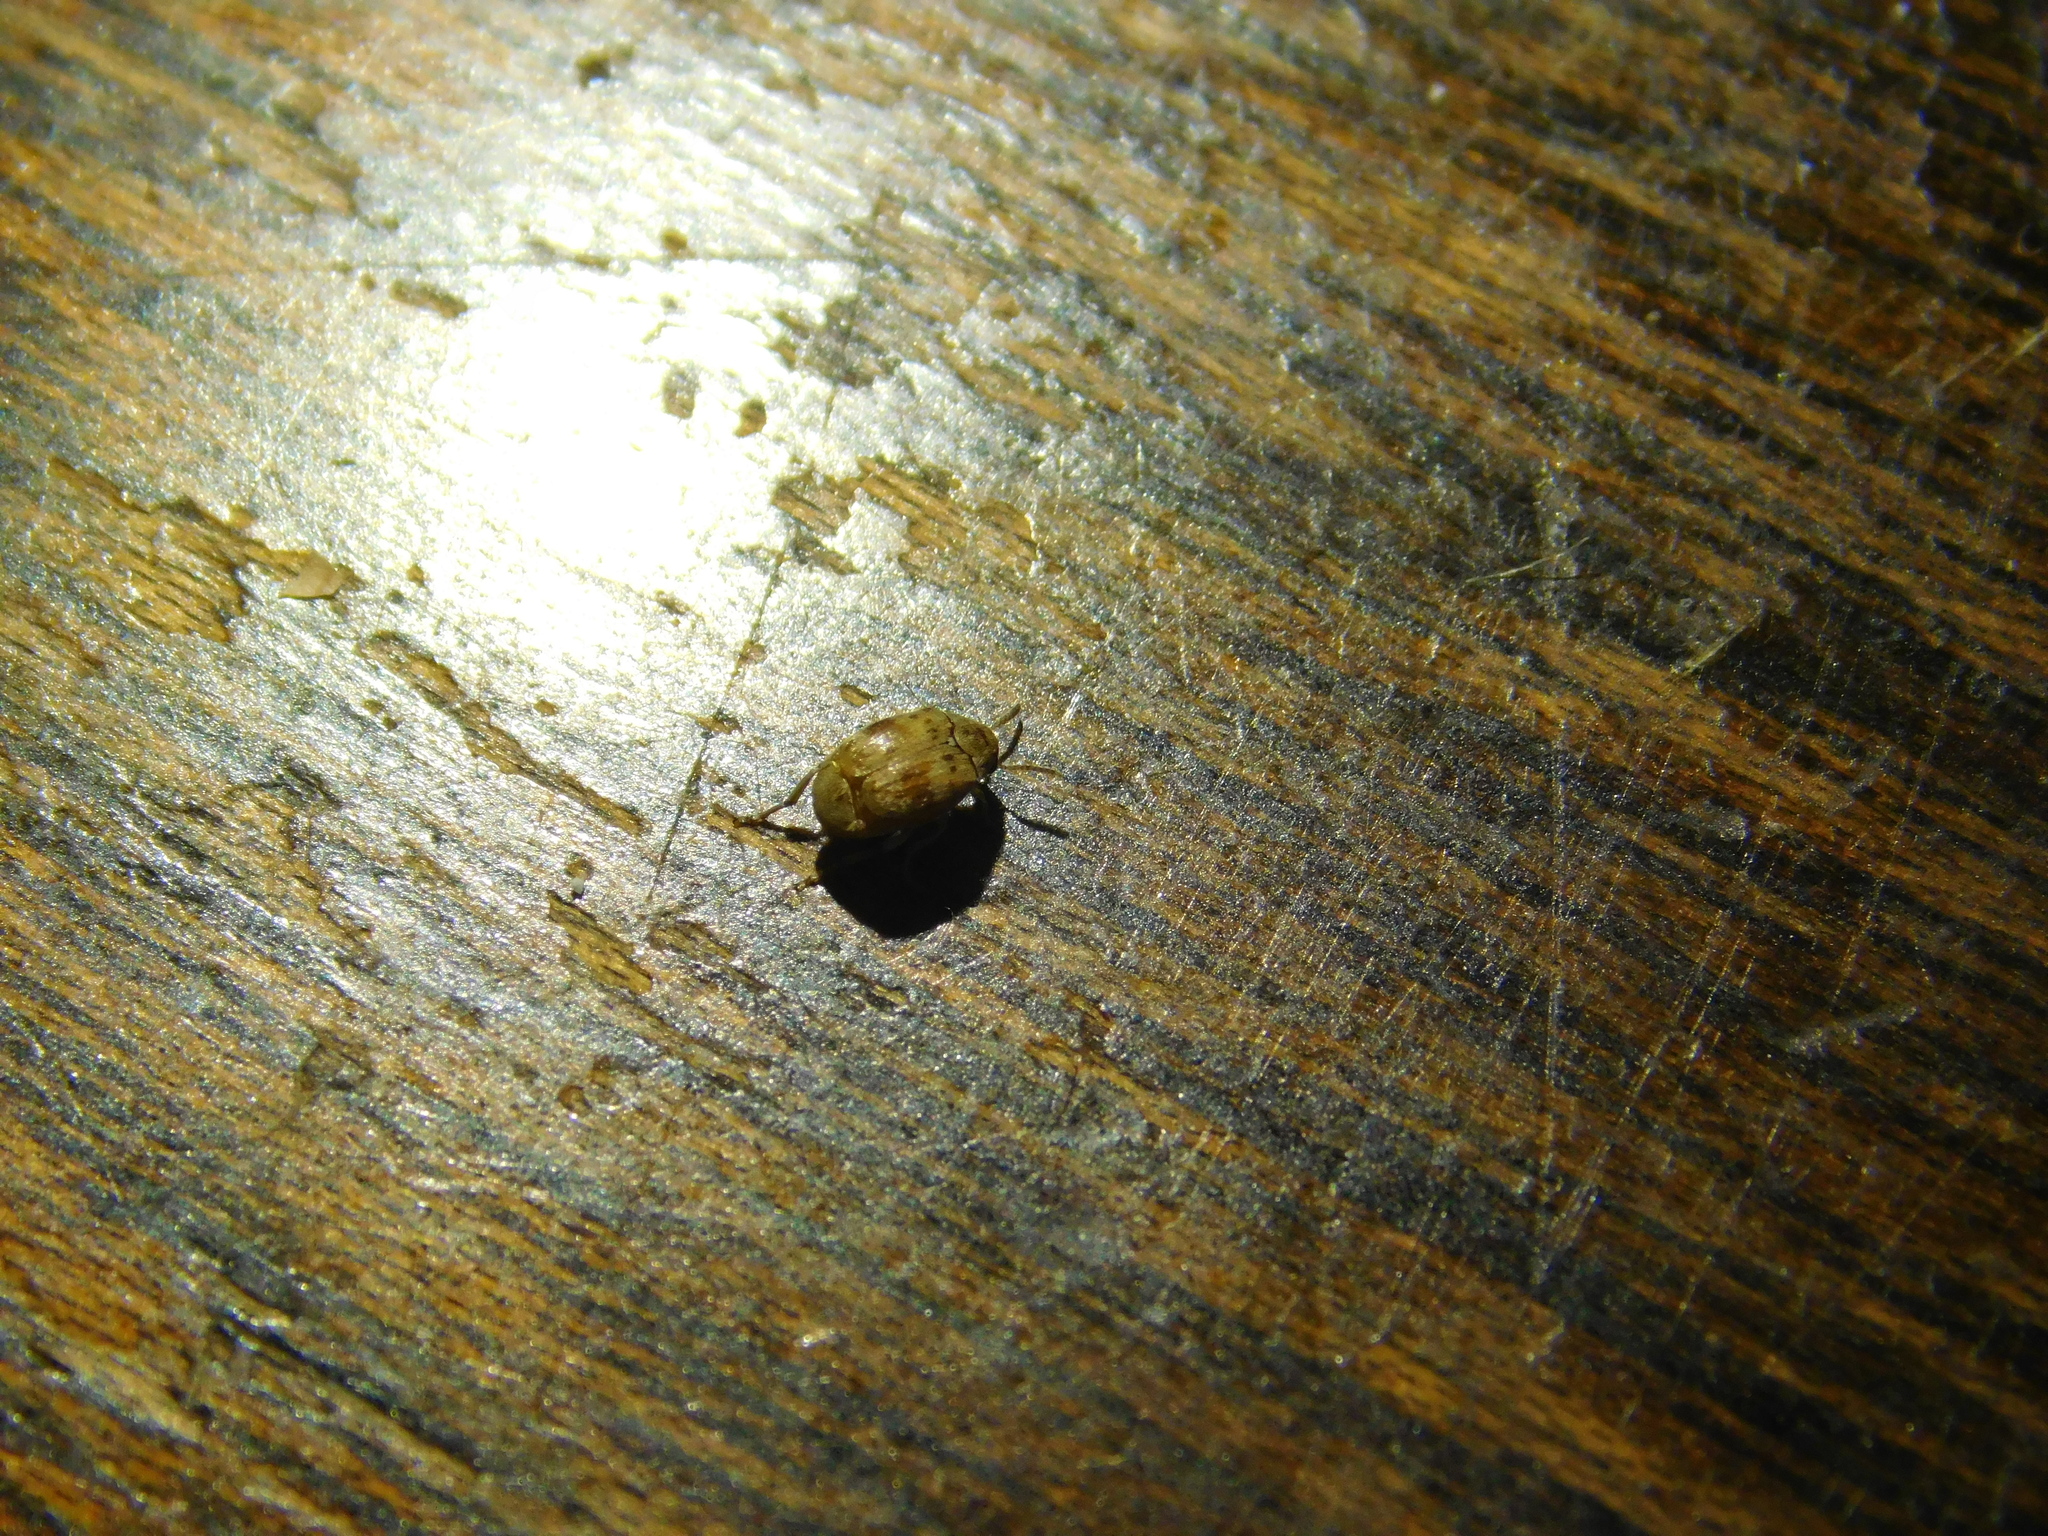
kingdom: Animalia
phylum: Arthropoda
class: Insecta
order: Coleoptera
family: Dermestidae
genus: Anthrenus
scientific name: Anthrenus verbasci
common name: Varied carpet beetle
